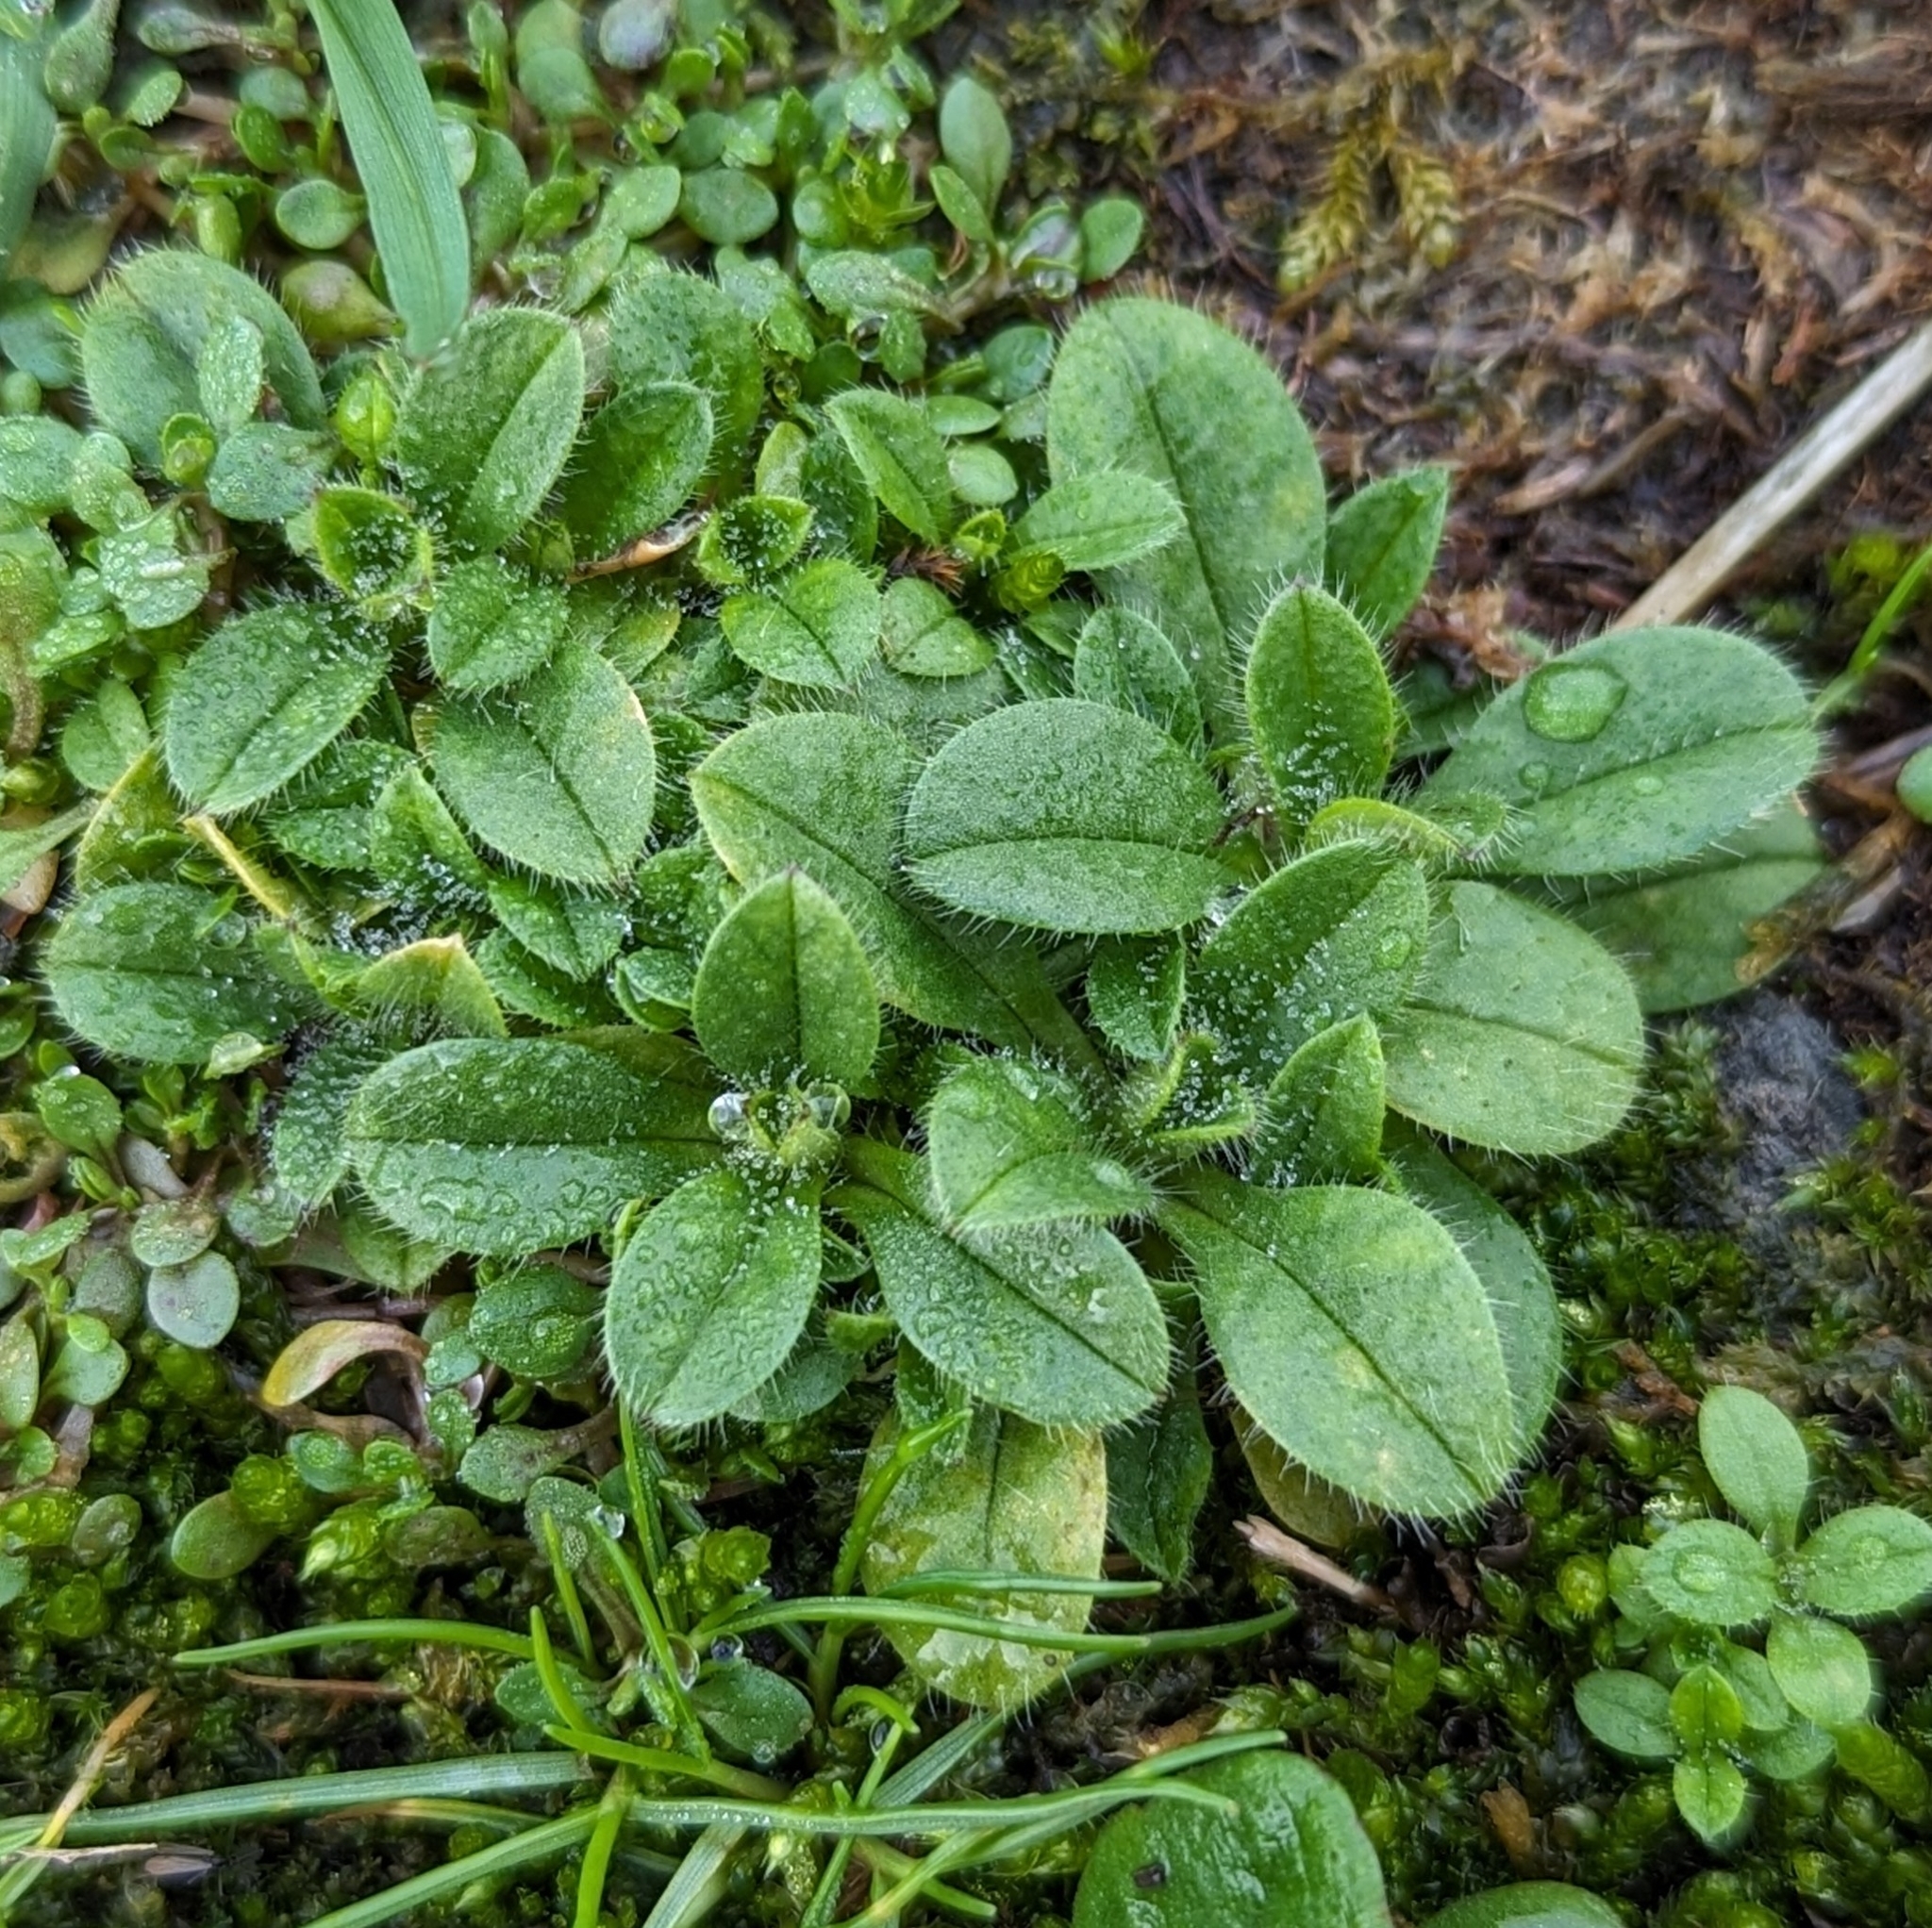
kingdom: Plantae
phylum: Tracheophyta
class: Magnoliopsida
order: Caryophyllales
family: Caryophyllaceae
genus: Cerastium
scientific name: Cerastium glomeratum
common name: Sticky chickweed
